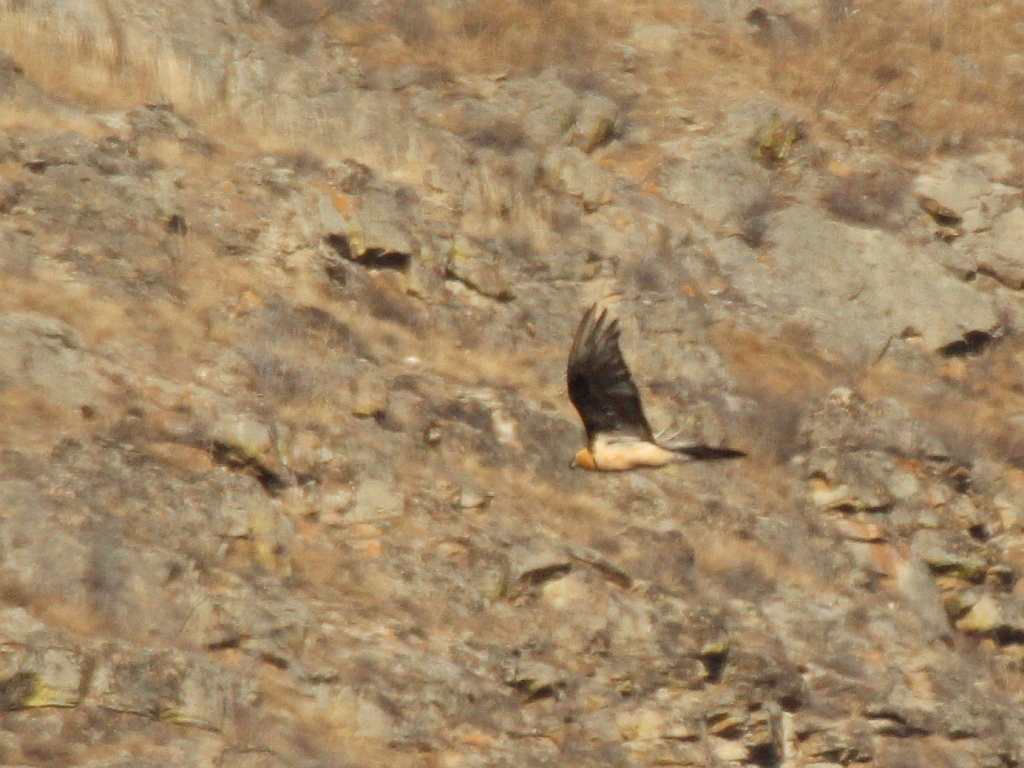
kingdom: Animalia
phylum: Chordata
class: Aves
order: Accipitriformes
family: Accipitridae
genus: Gypaetus
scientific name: Gypaetus barbatus
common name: Bearded vulture
